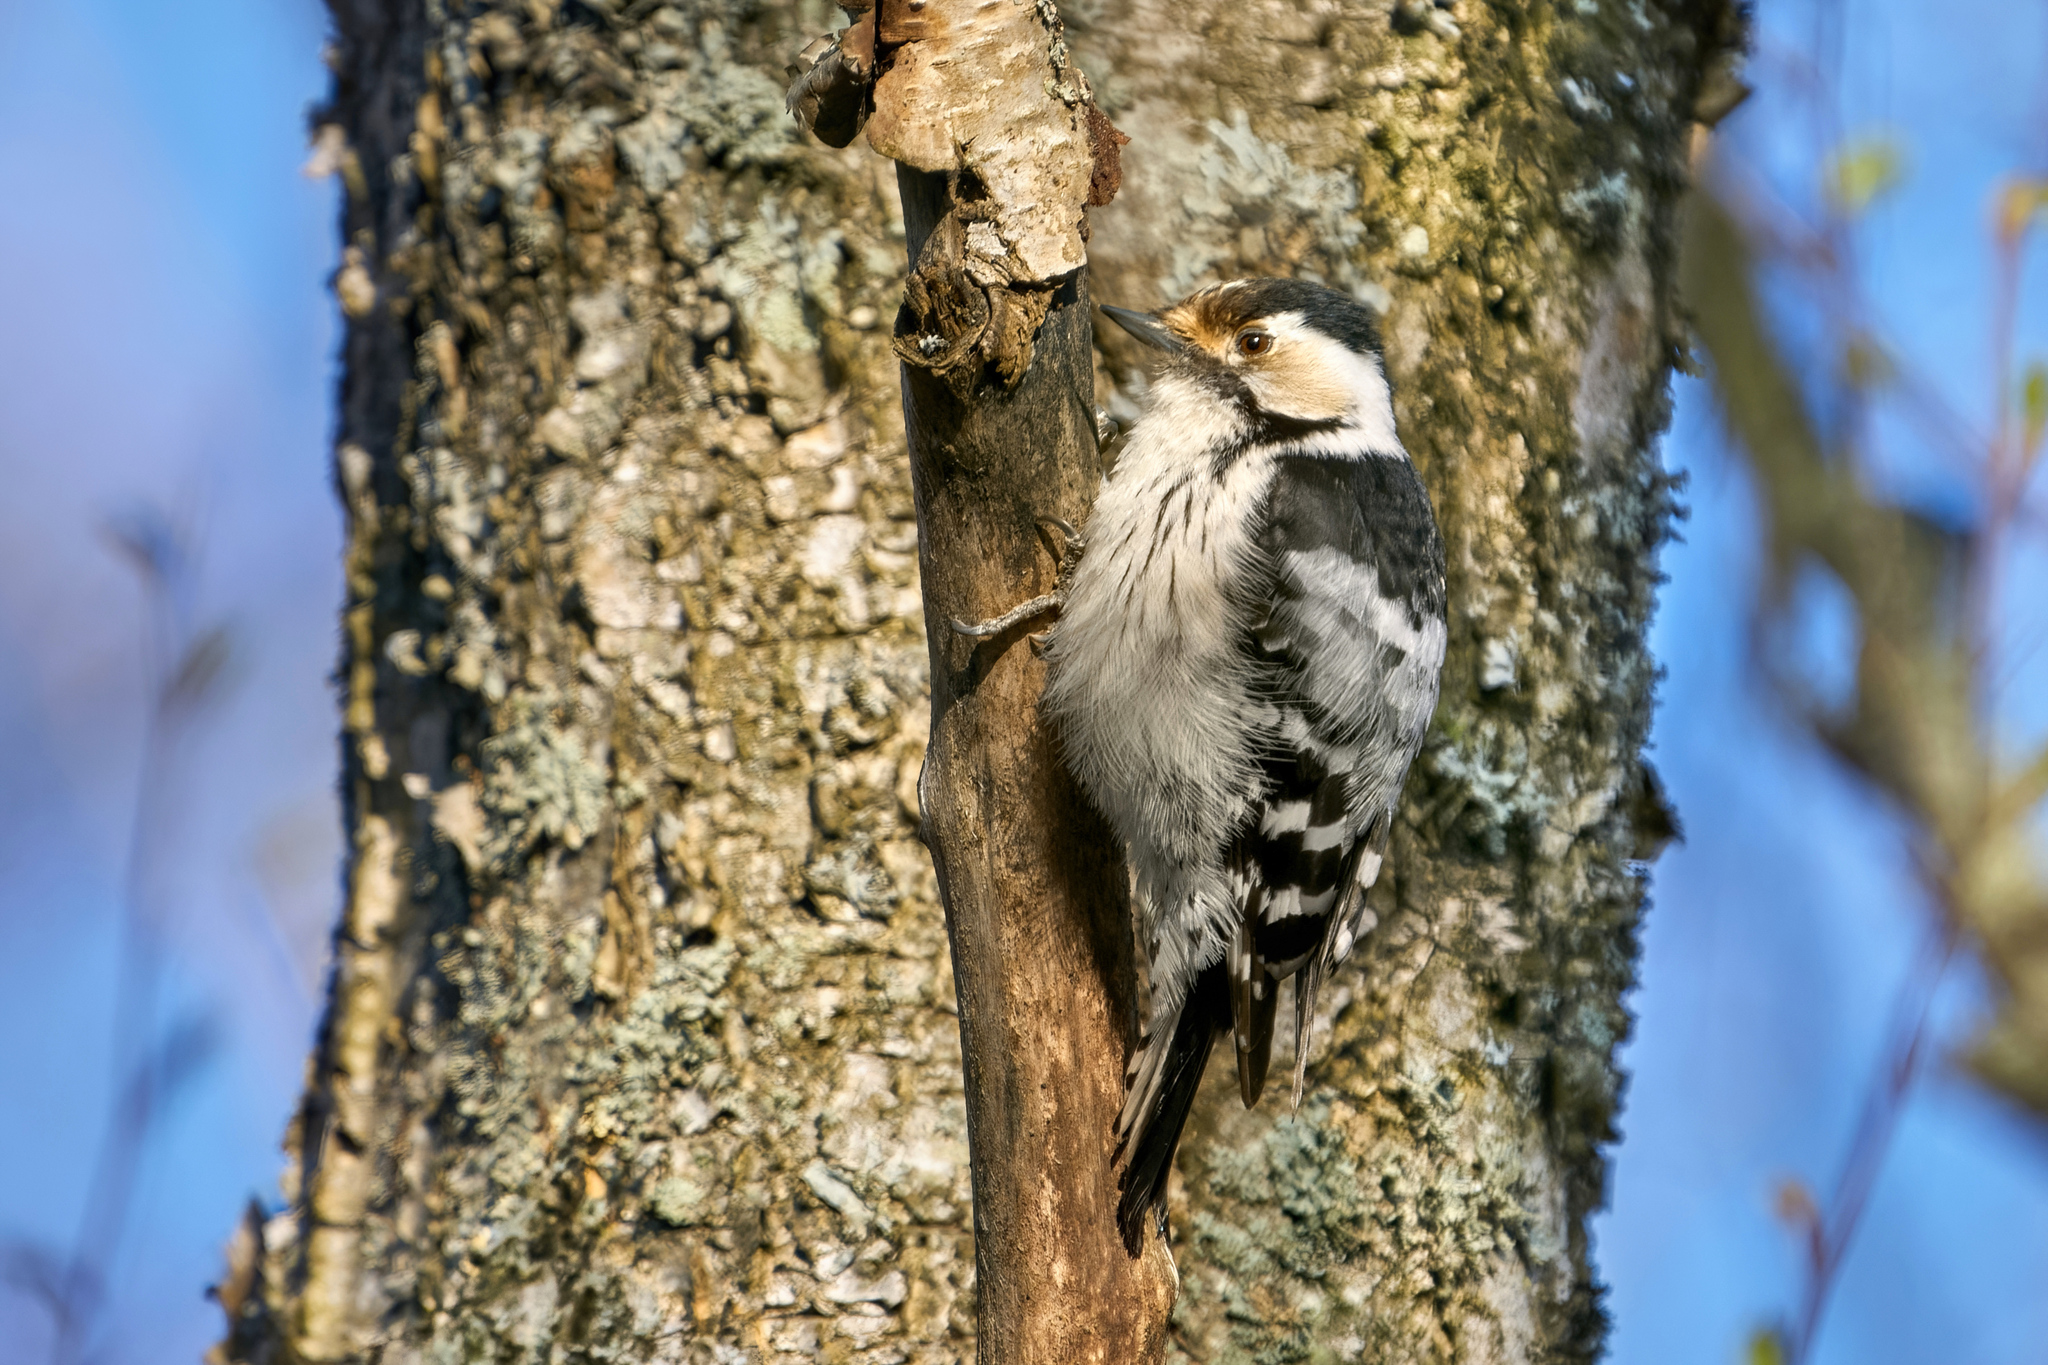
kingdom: Animalia
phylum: Chordata
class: Aves
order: Piciformes
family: Picidae
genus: Dryobates
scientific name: Dryobates minor
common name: Lesser spotted woodpecker
